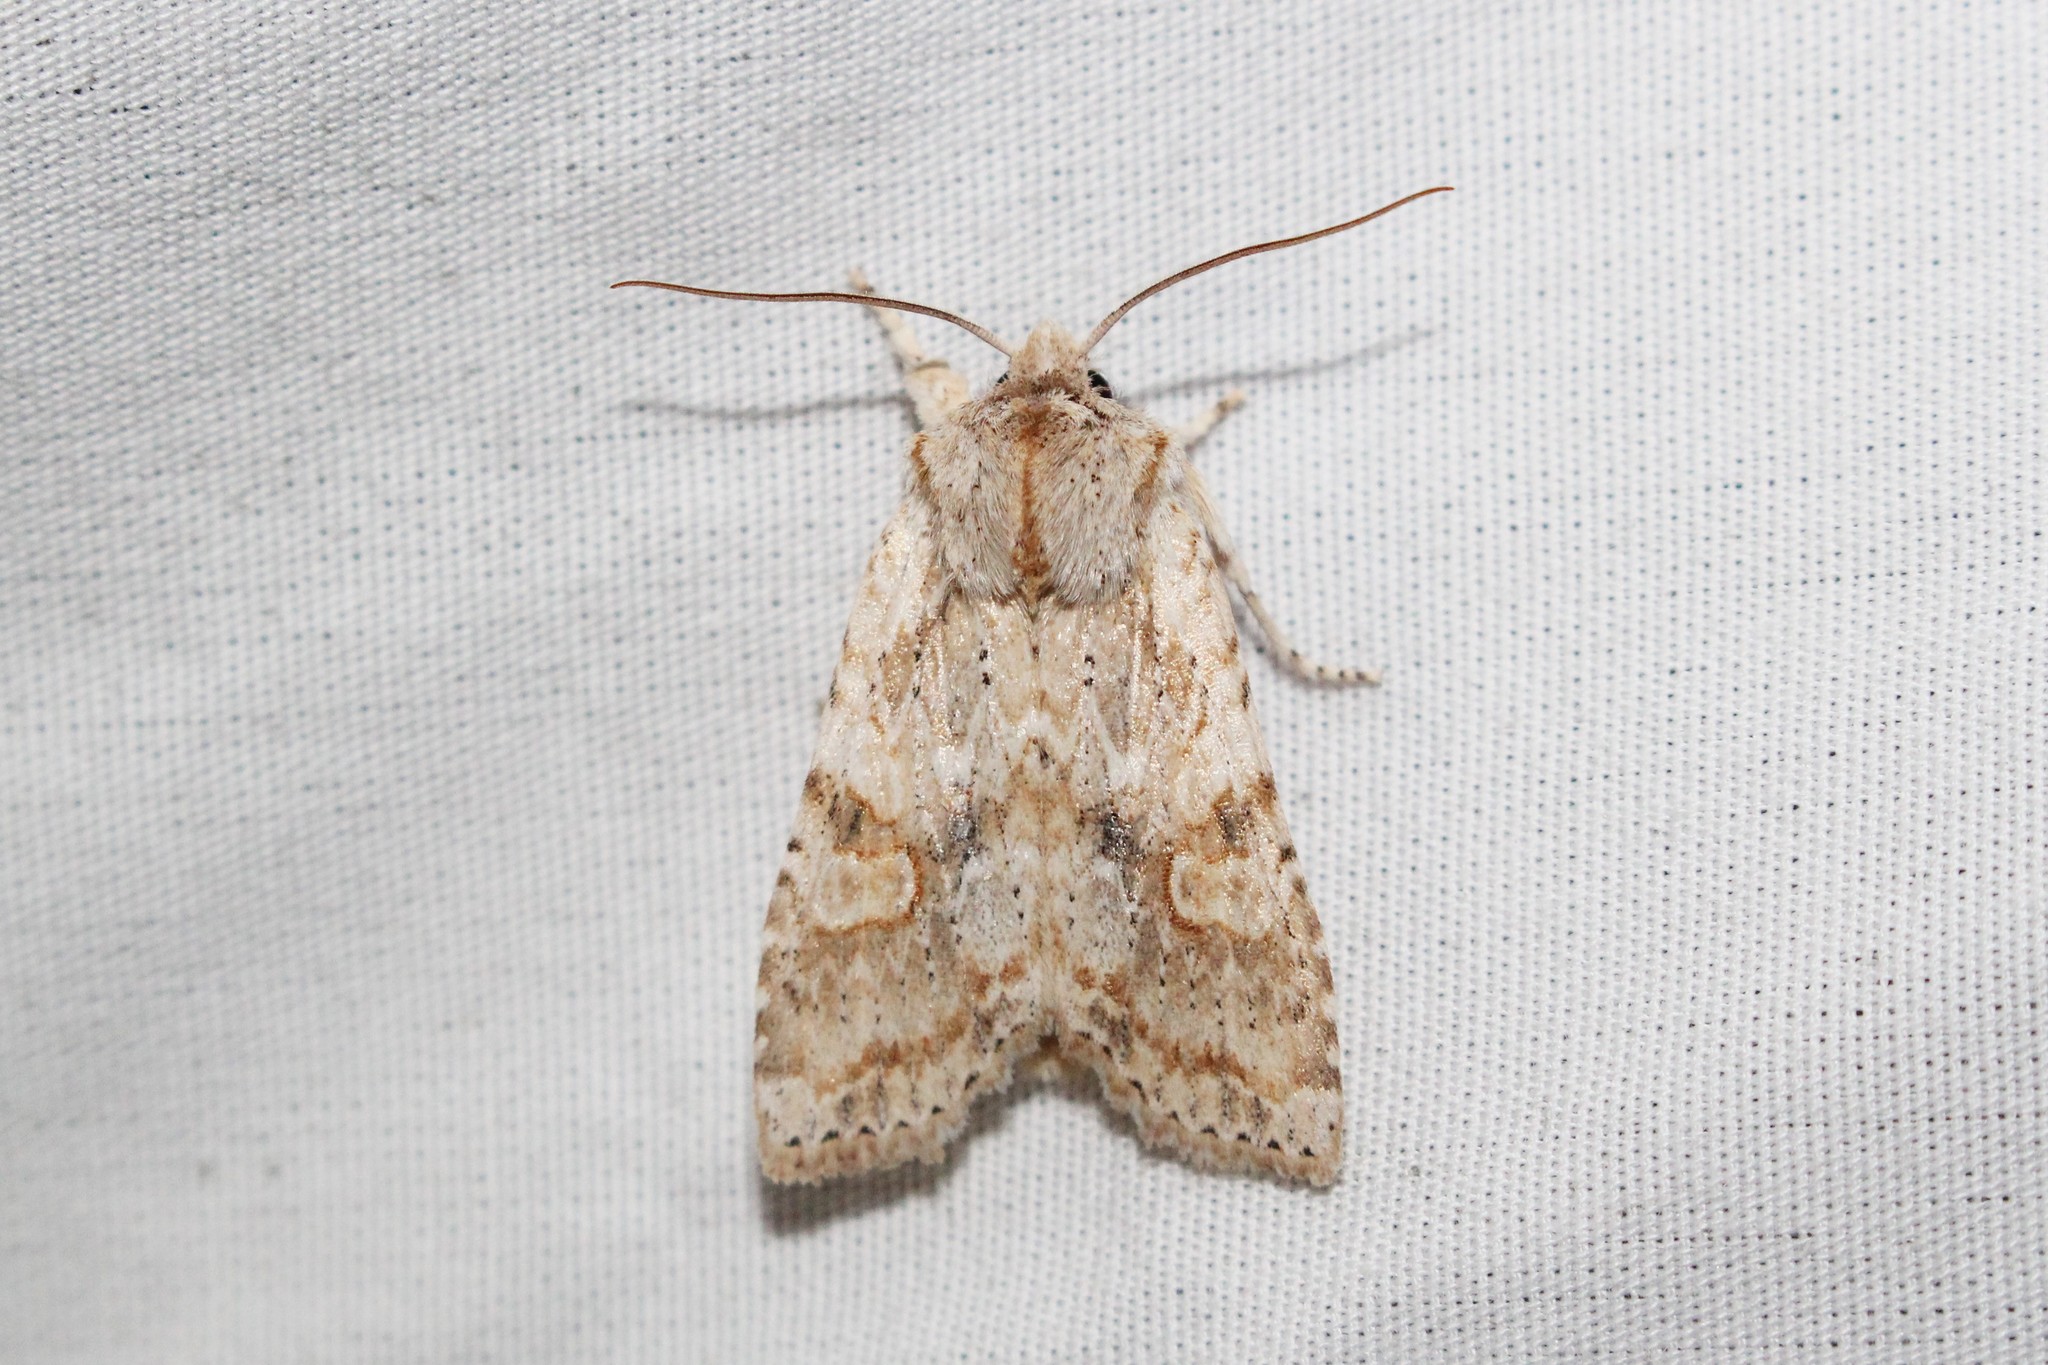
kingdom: Animalia
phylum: Arthropoda
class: Insecta
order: Lepidoptera
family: Noctuidae
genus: Lithophane
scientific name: Lithophane bethunei
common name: Bethune's pinion moth
